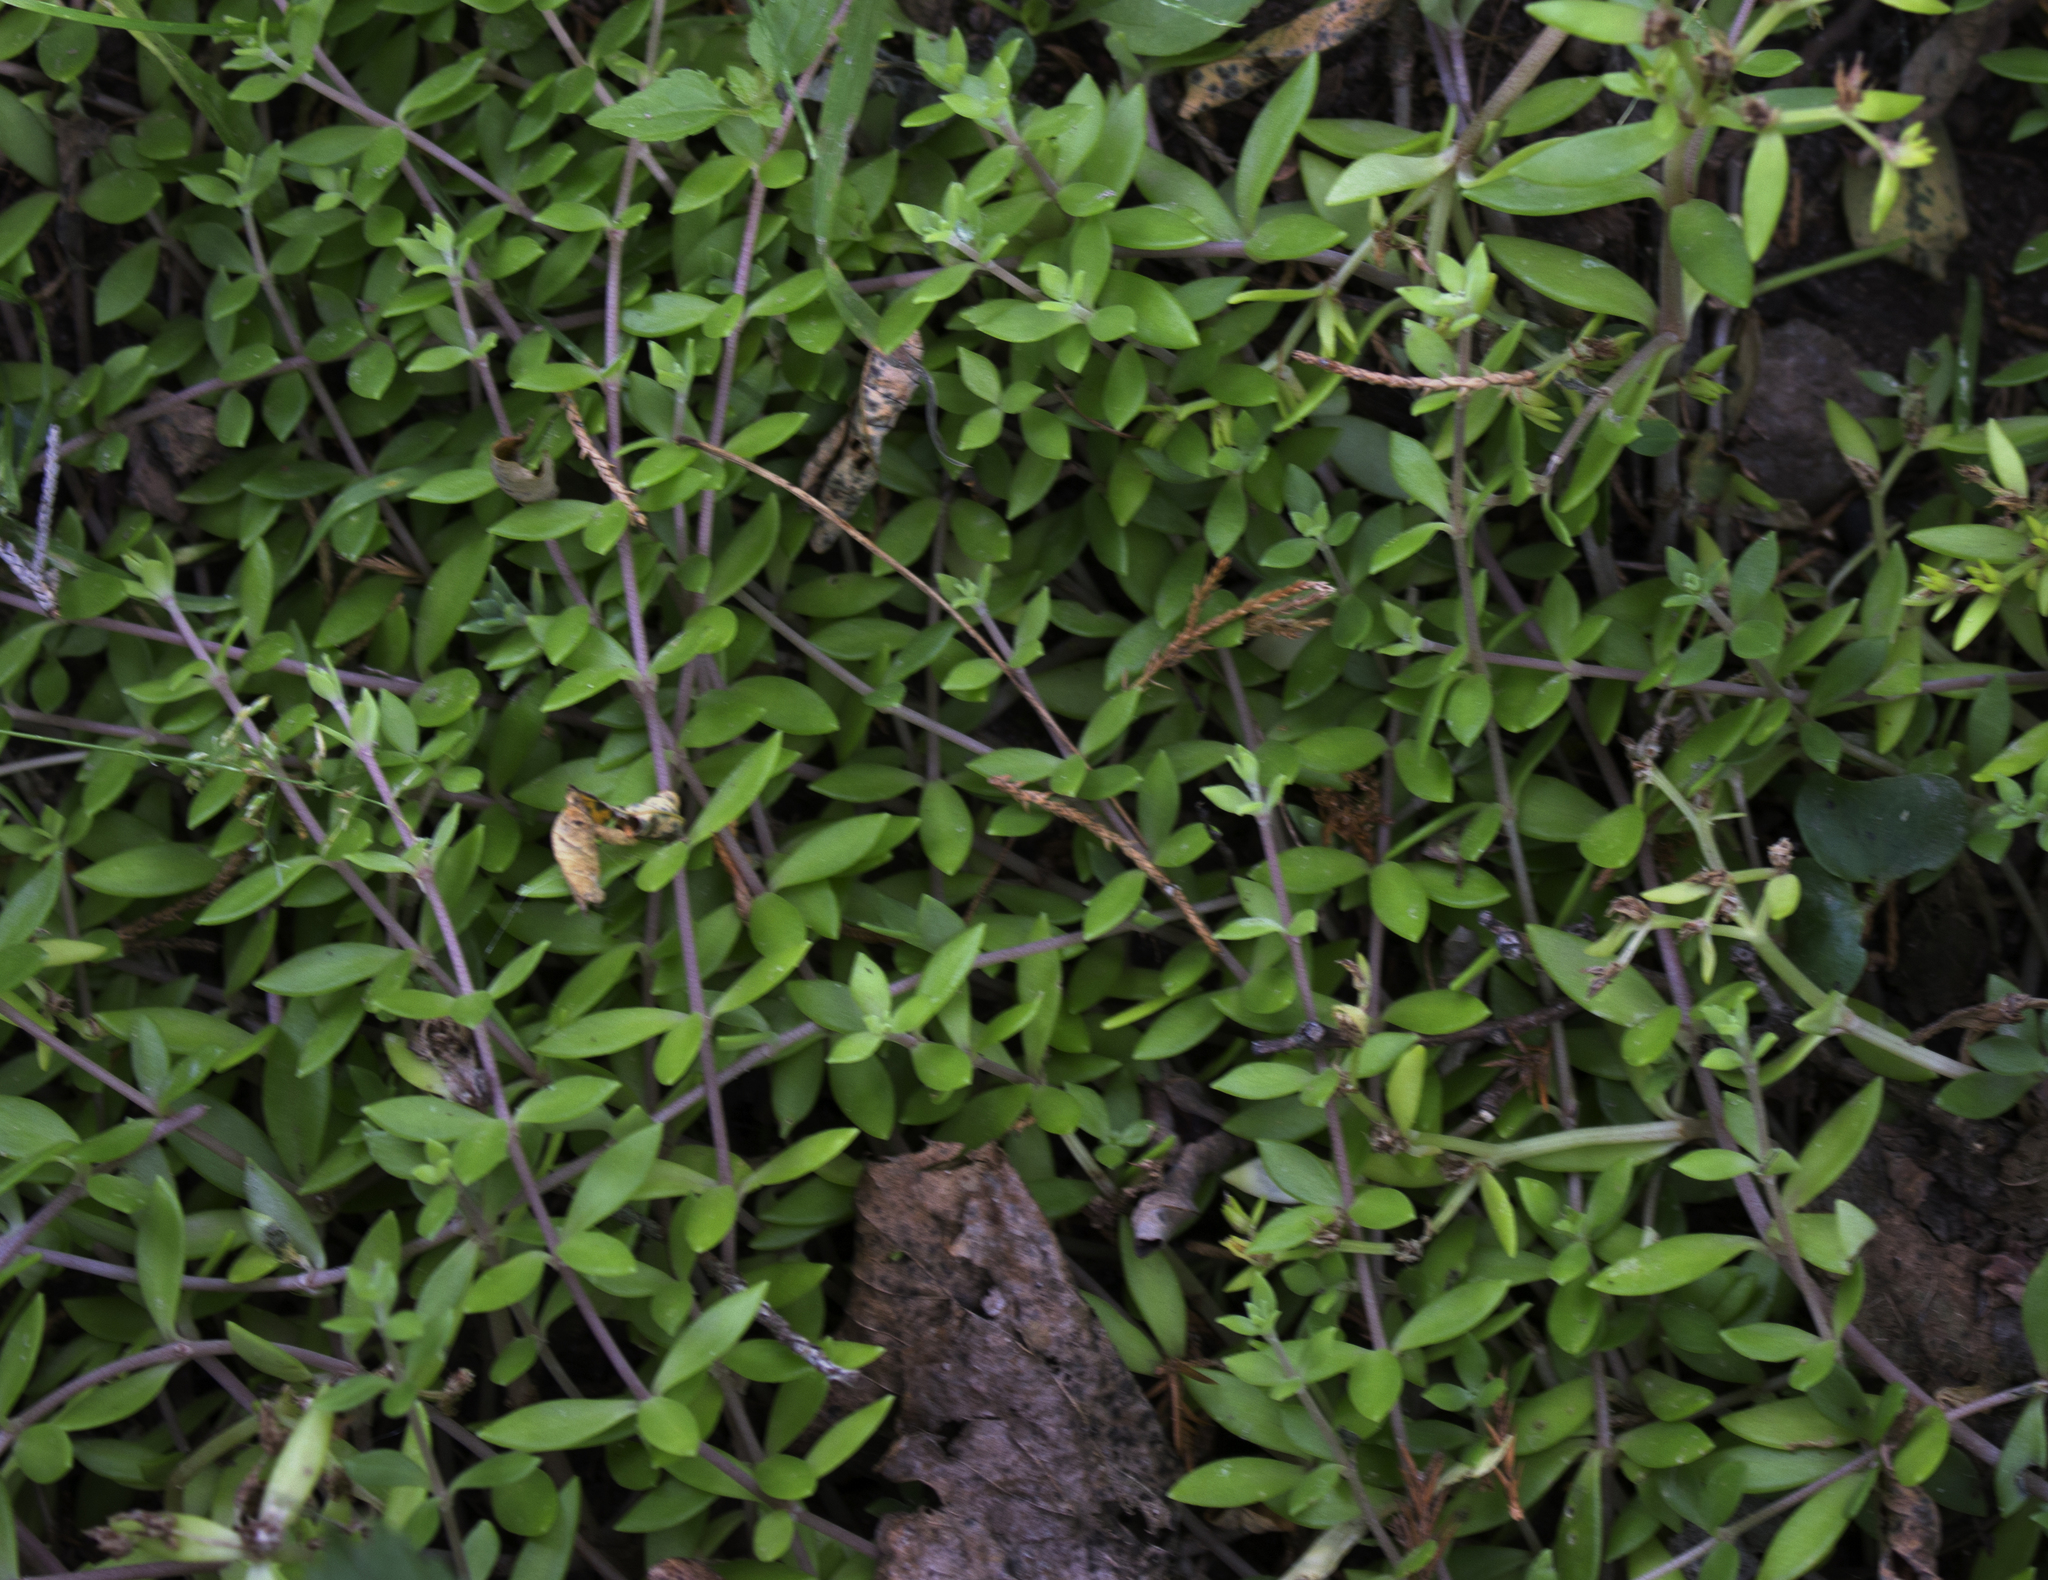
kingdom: Plantae
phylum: Tracheophyta
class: Magnoliopsida
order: Saxifragales
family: Crassulaceae
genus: Sedum
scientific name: Sedum sarmentosum
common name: Stringy stonecrop
